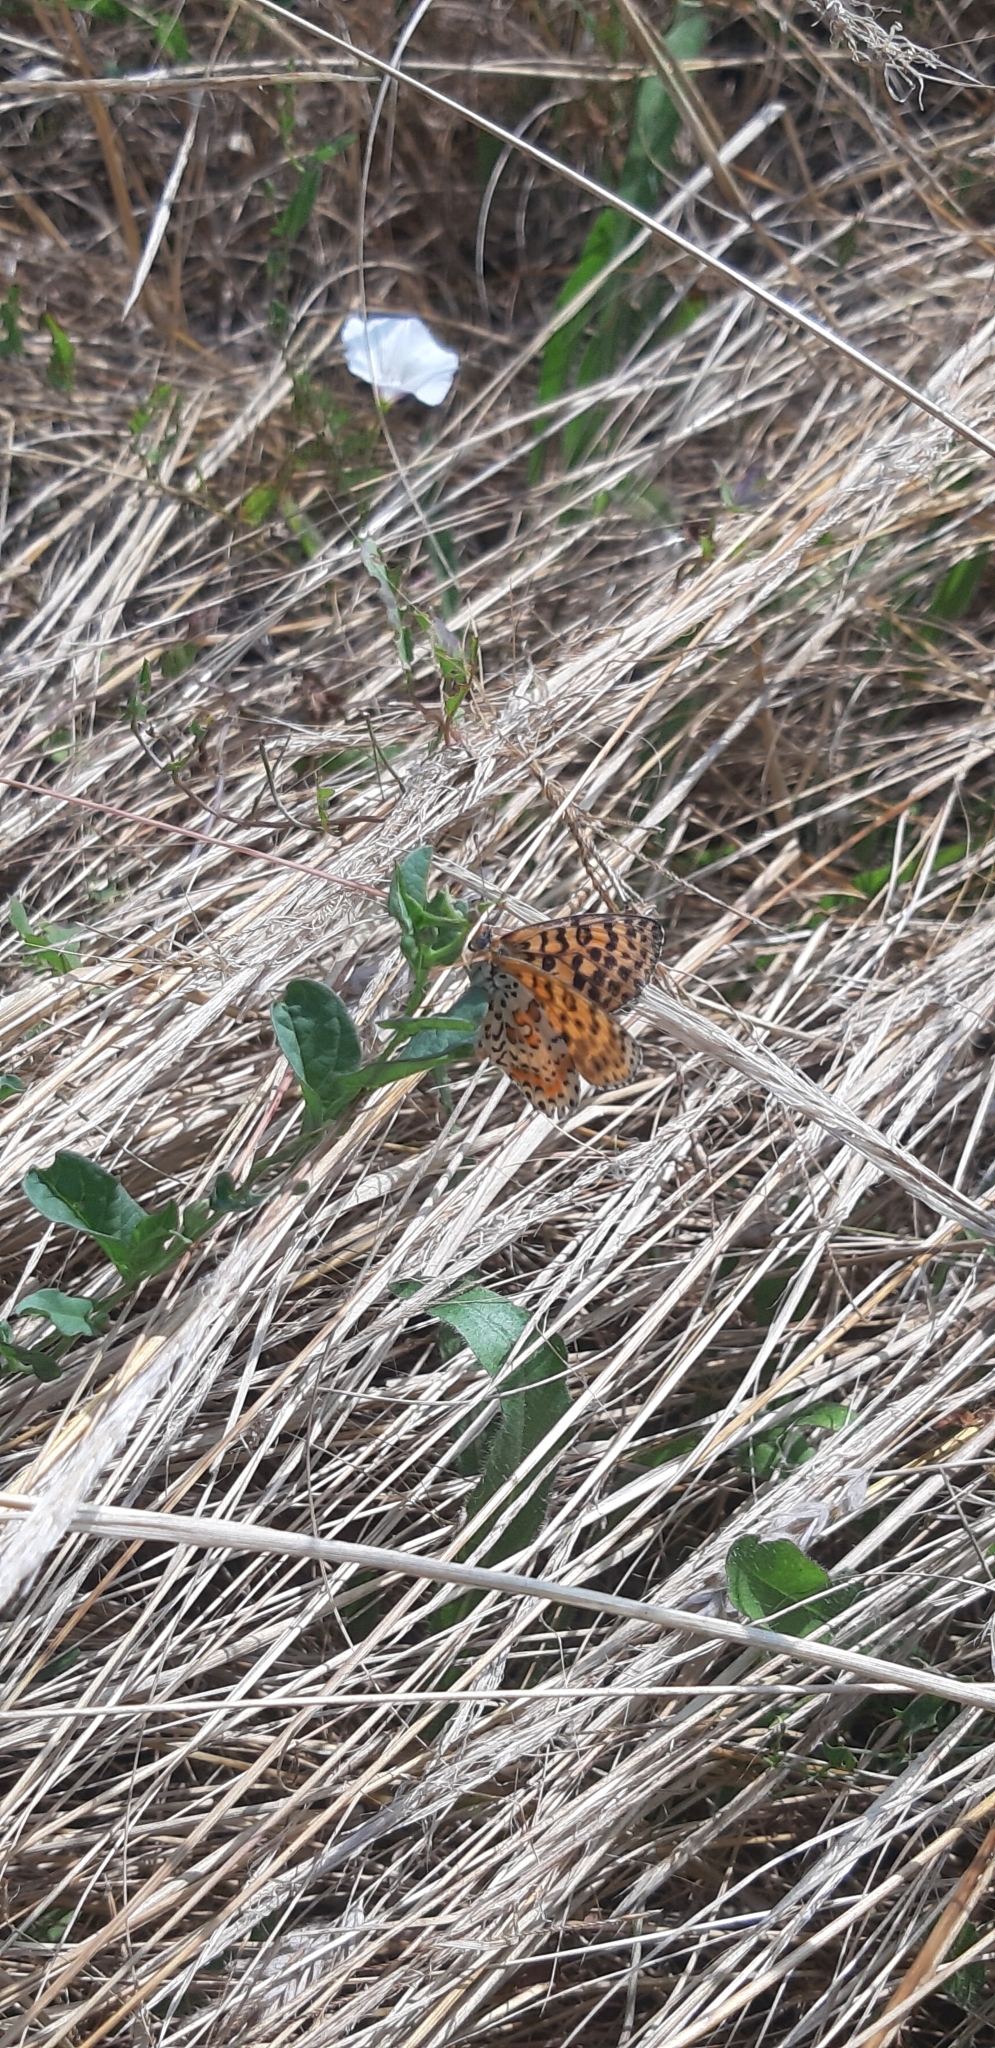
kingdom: Animalia
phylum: Arthropoda
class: Insecta
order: Lepidoptera
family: Nymphalidae
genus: Melitaea
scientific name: Melitaea didyma
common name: Spotted fritillary
